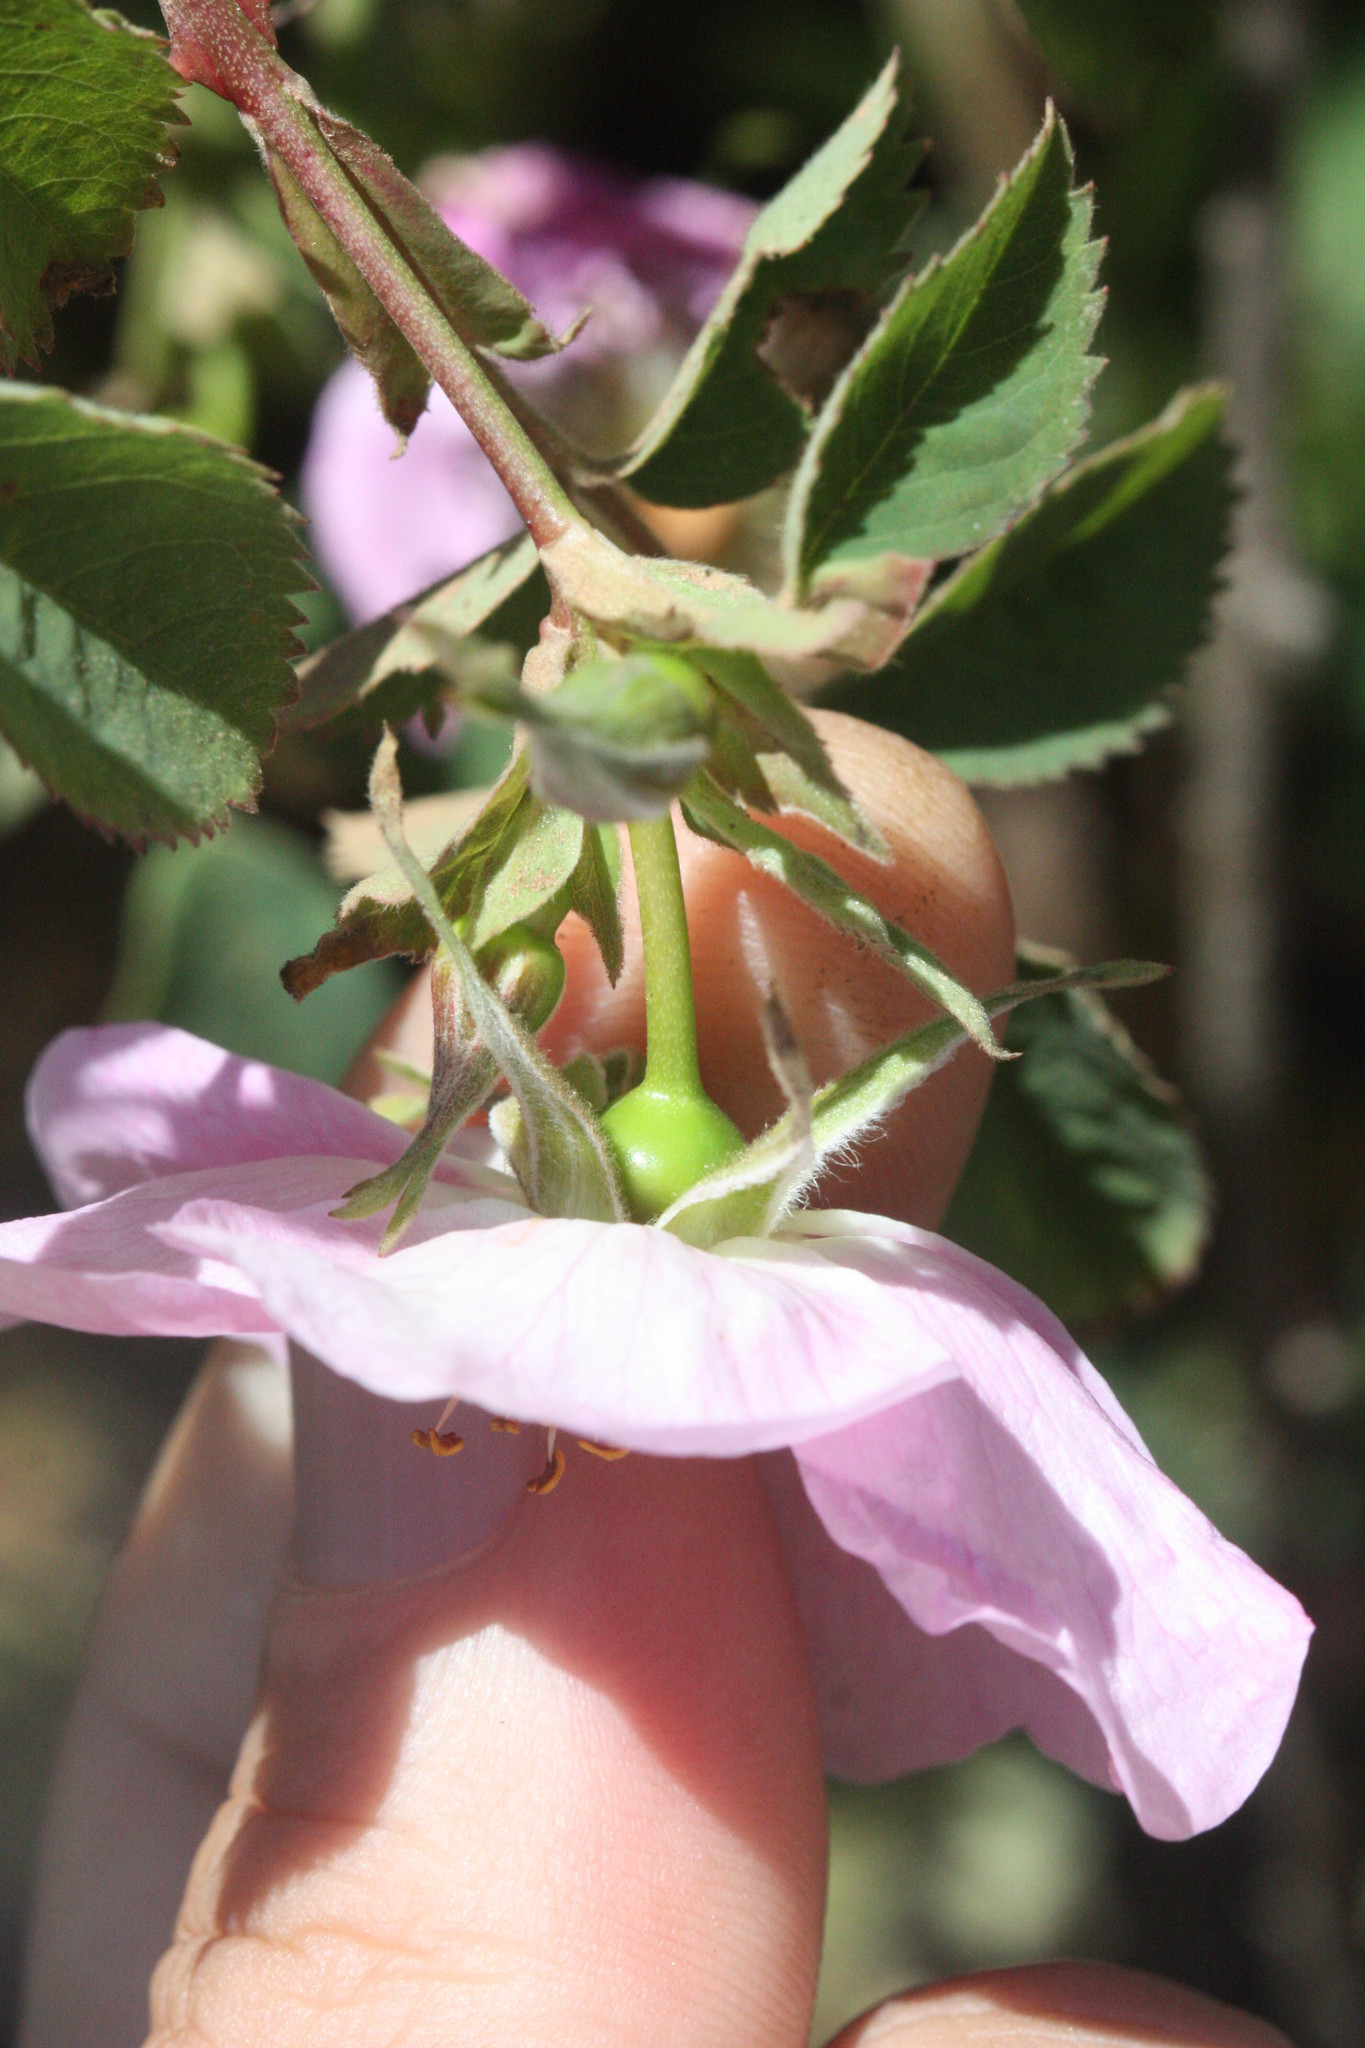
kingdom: Plantae
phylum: Tracheophyta
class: Magnoliopsida
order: Rosales
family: Rosaceae
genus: Rosa
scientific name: Rosa nutkana
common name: Nootka rose
